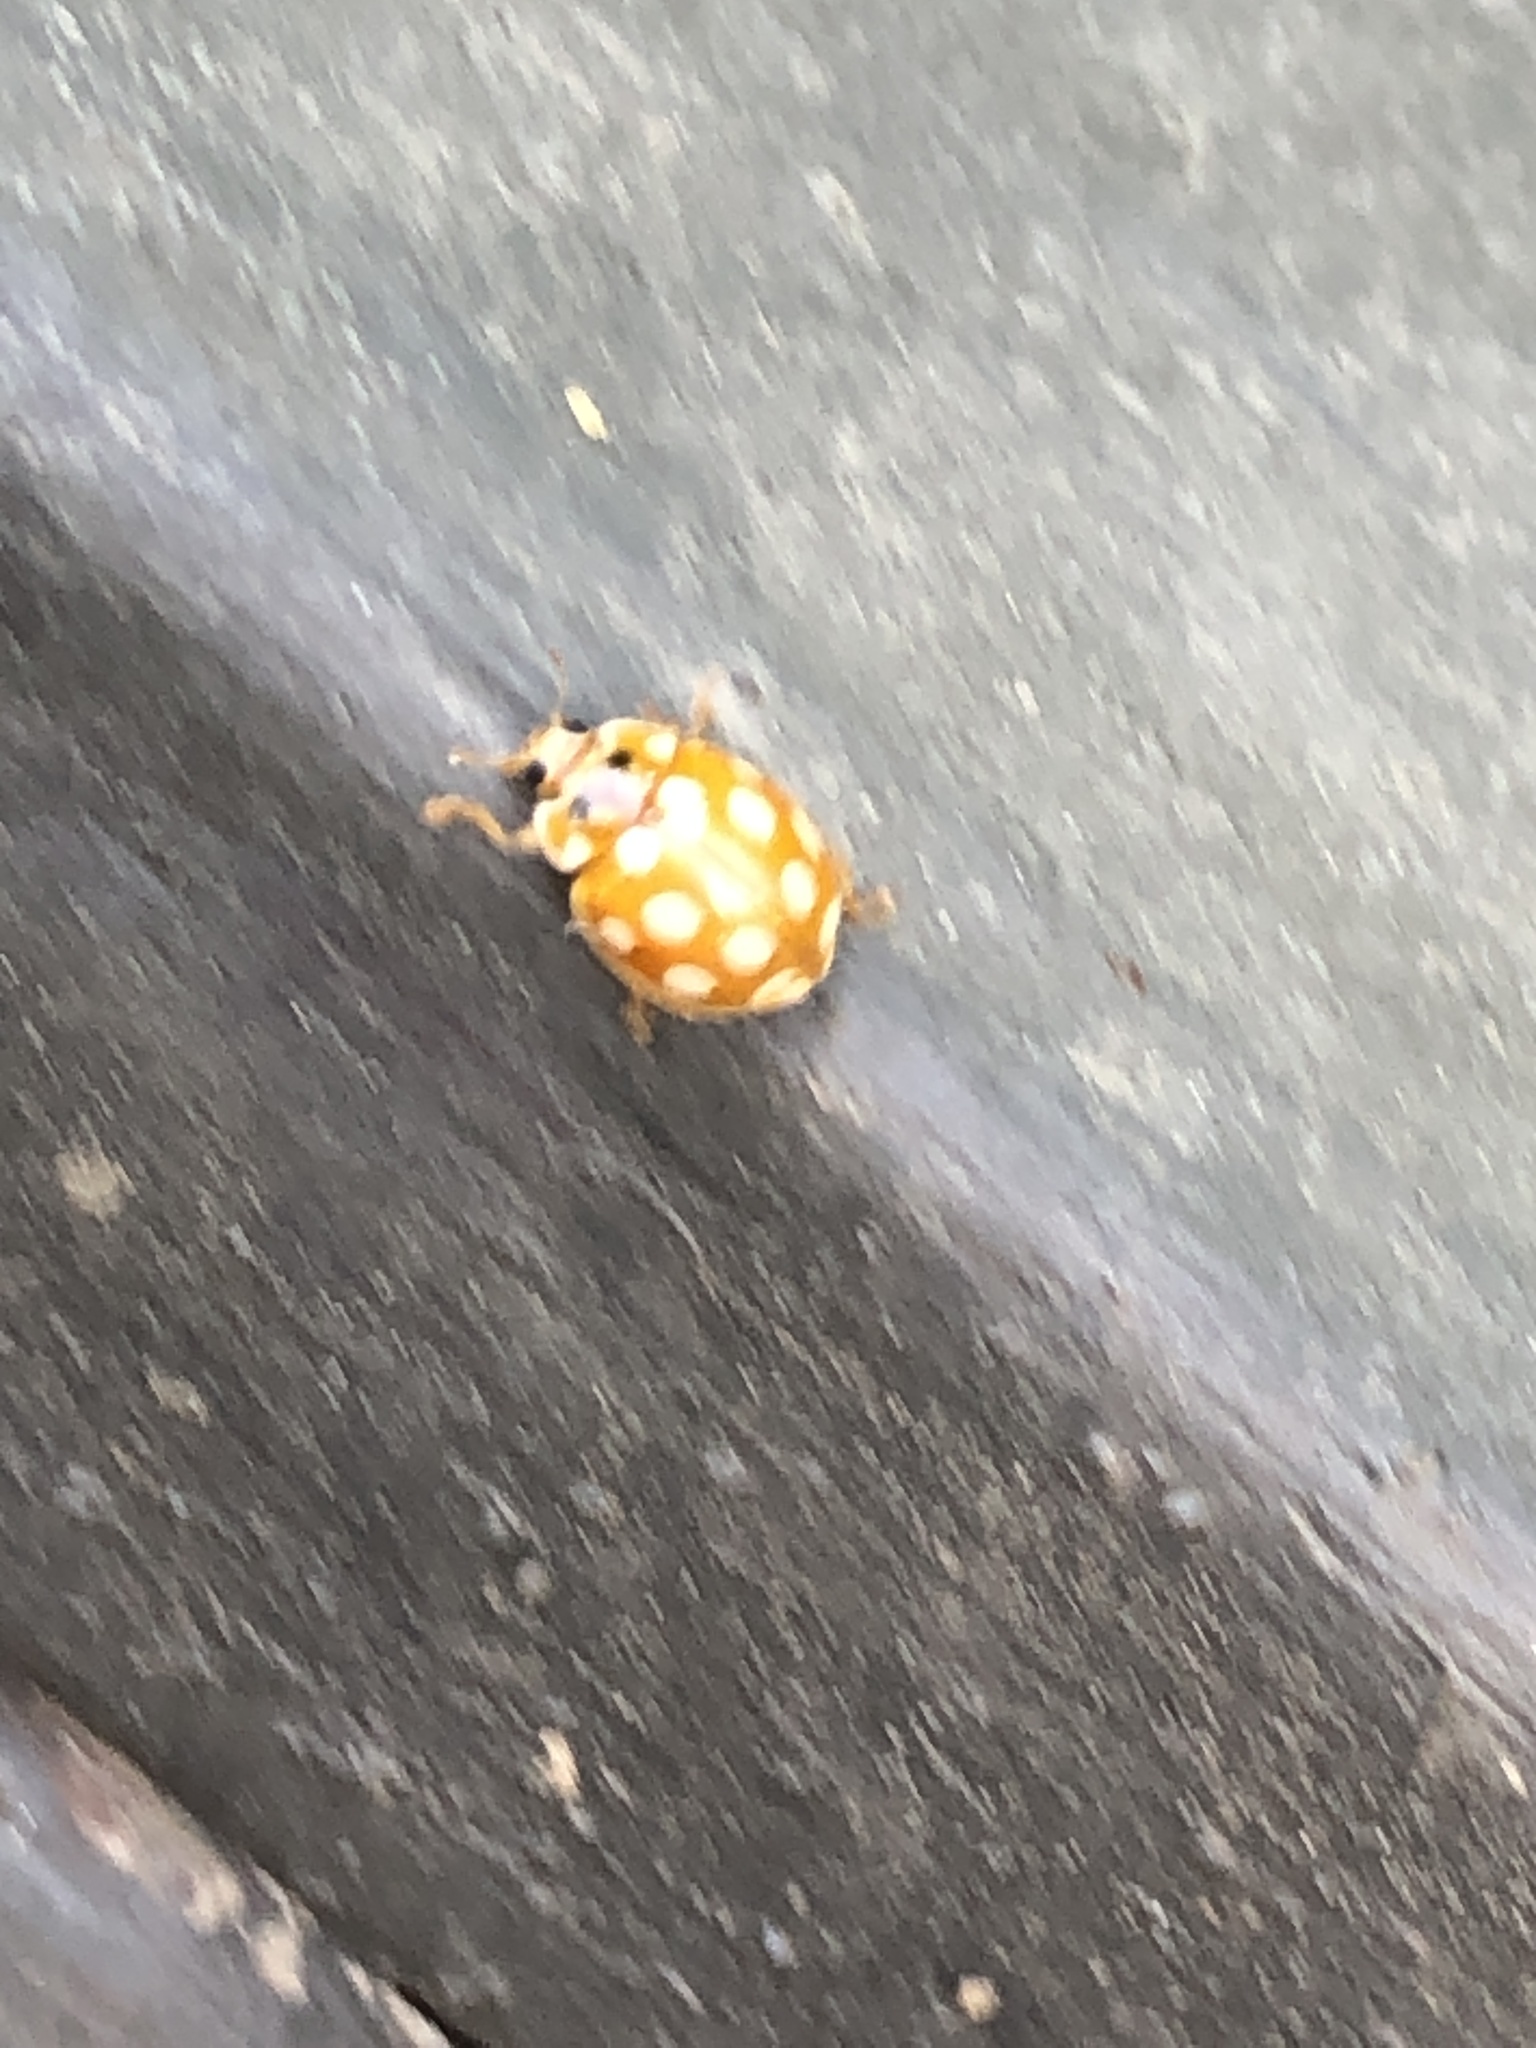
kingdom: Animalia
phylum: Arthropoda
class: Insecta
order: Coleoptera
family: Coccinellidae
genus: Calvia
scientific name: Calvia muiri
